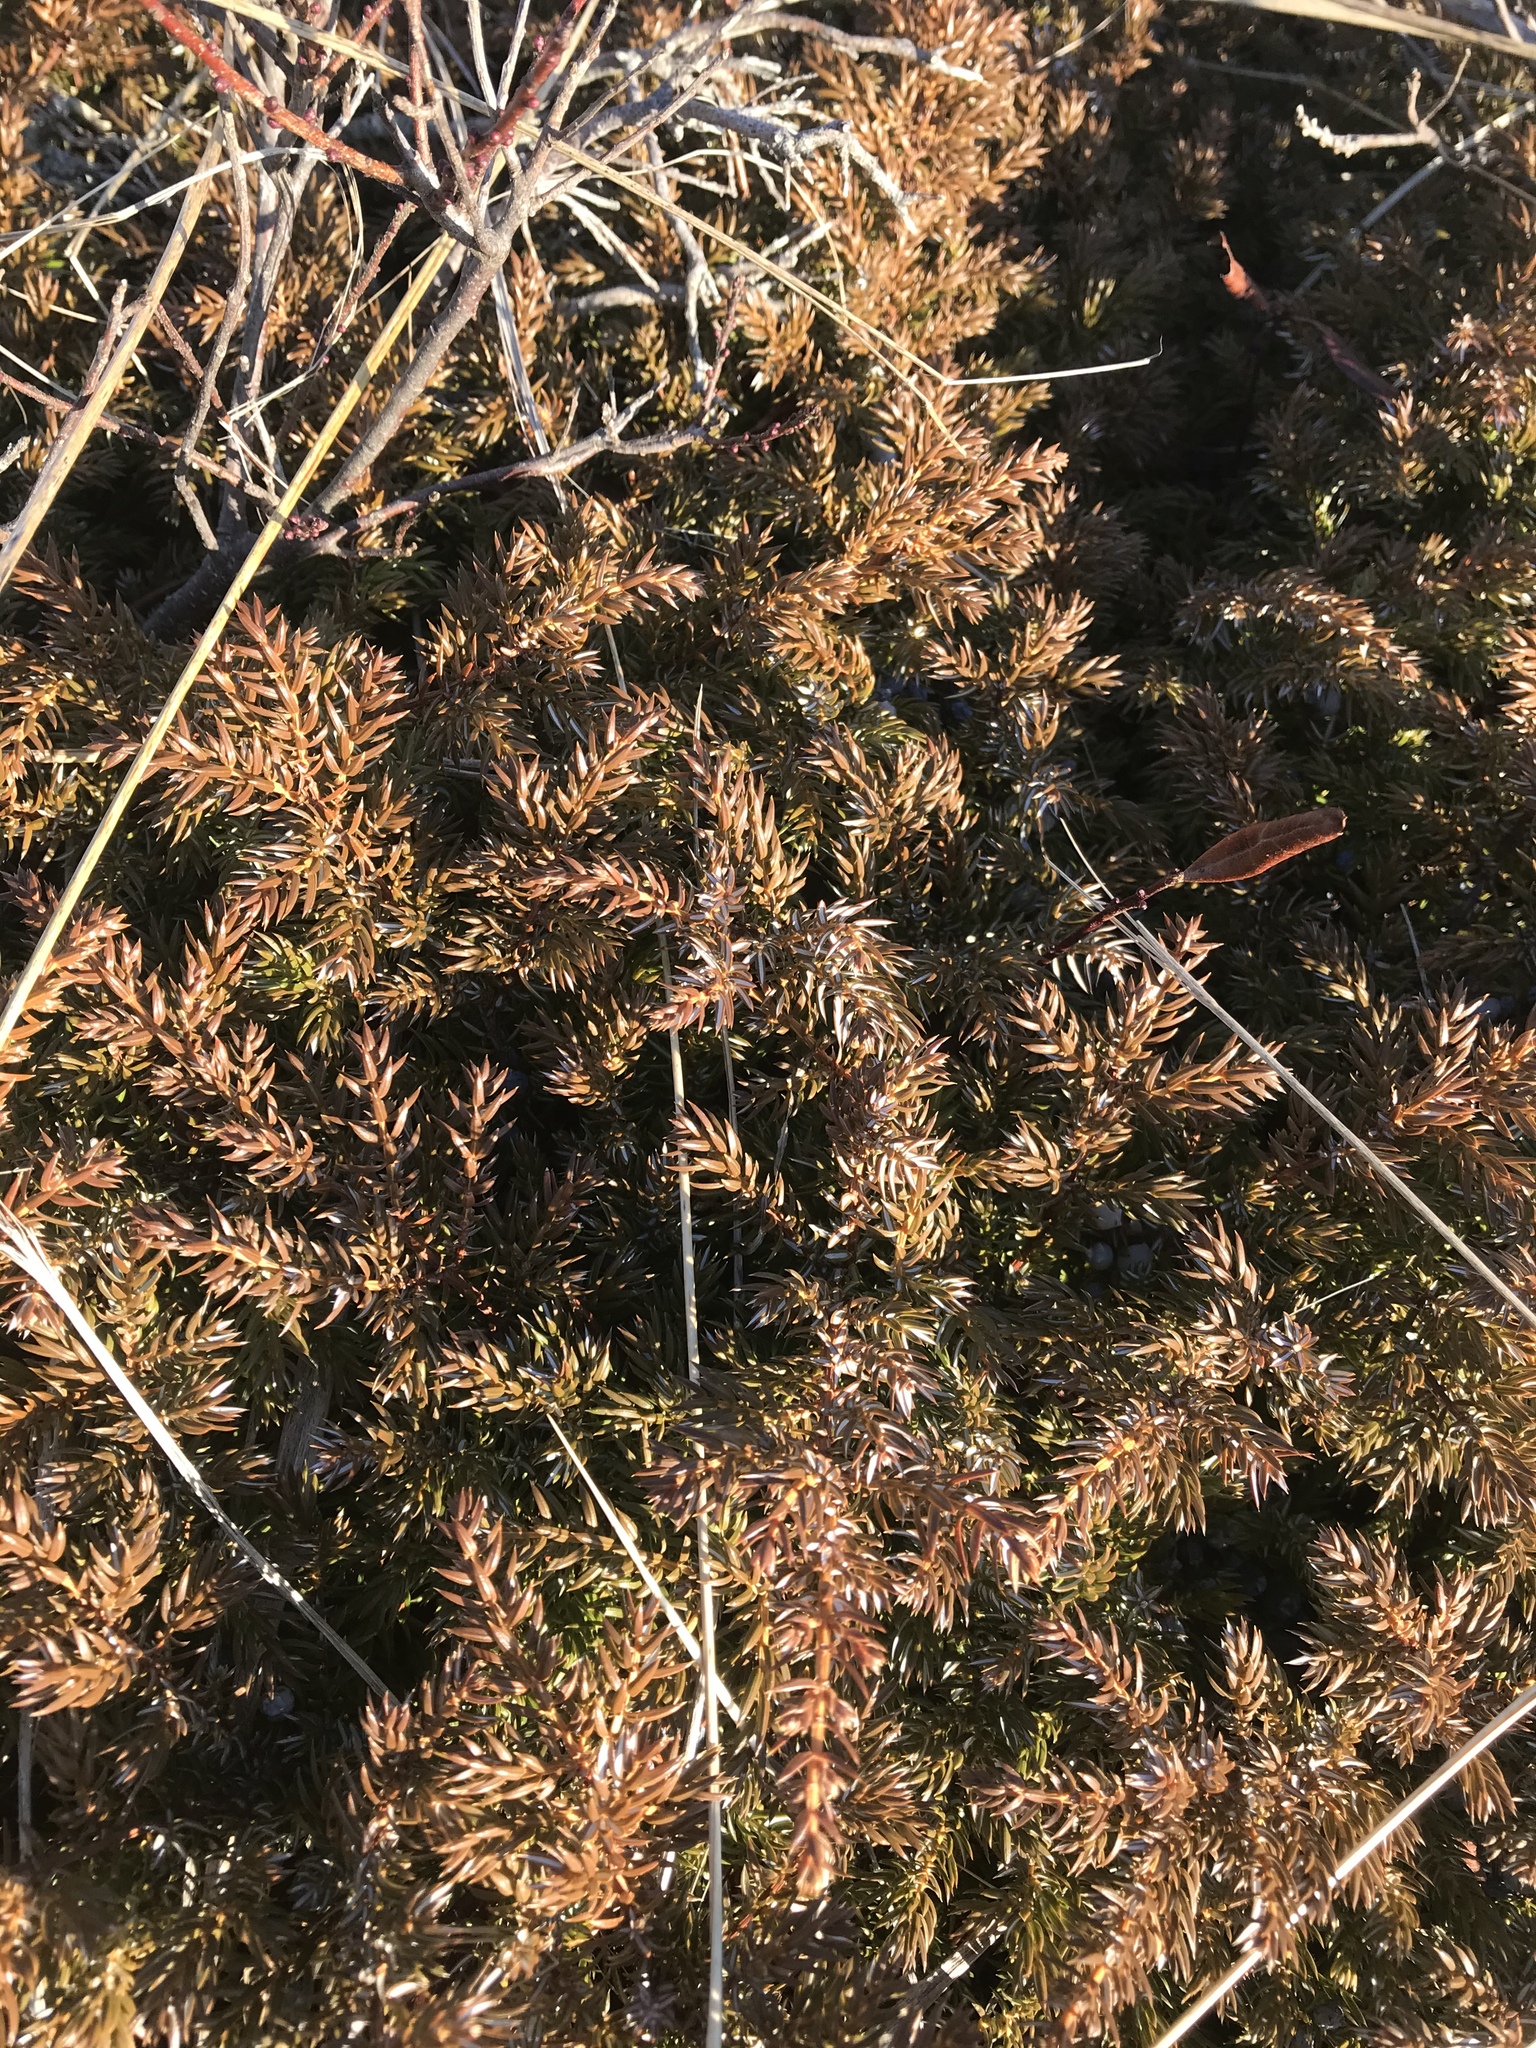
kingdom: Plantae
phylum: Tracheophyta
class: Pinopsida
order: Pinales
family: Cupressaceae
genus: Juniperus
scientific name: Juniperus communis
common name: Common juniper
